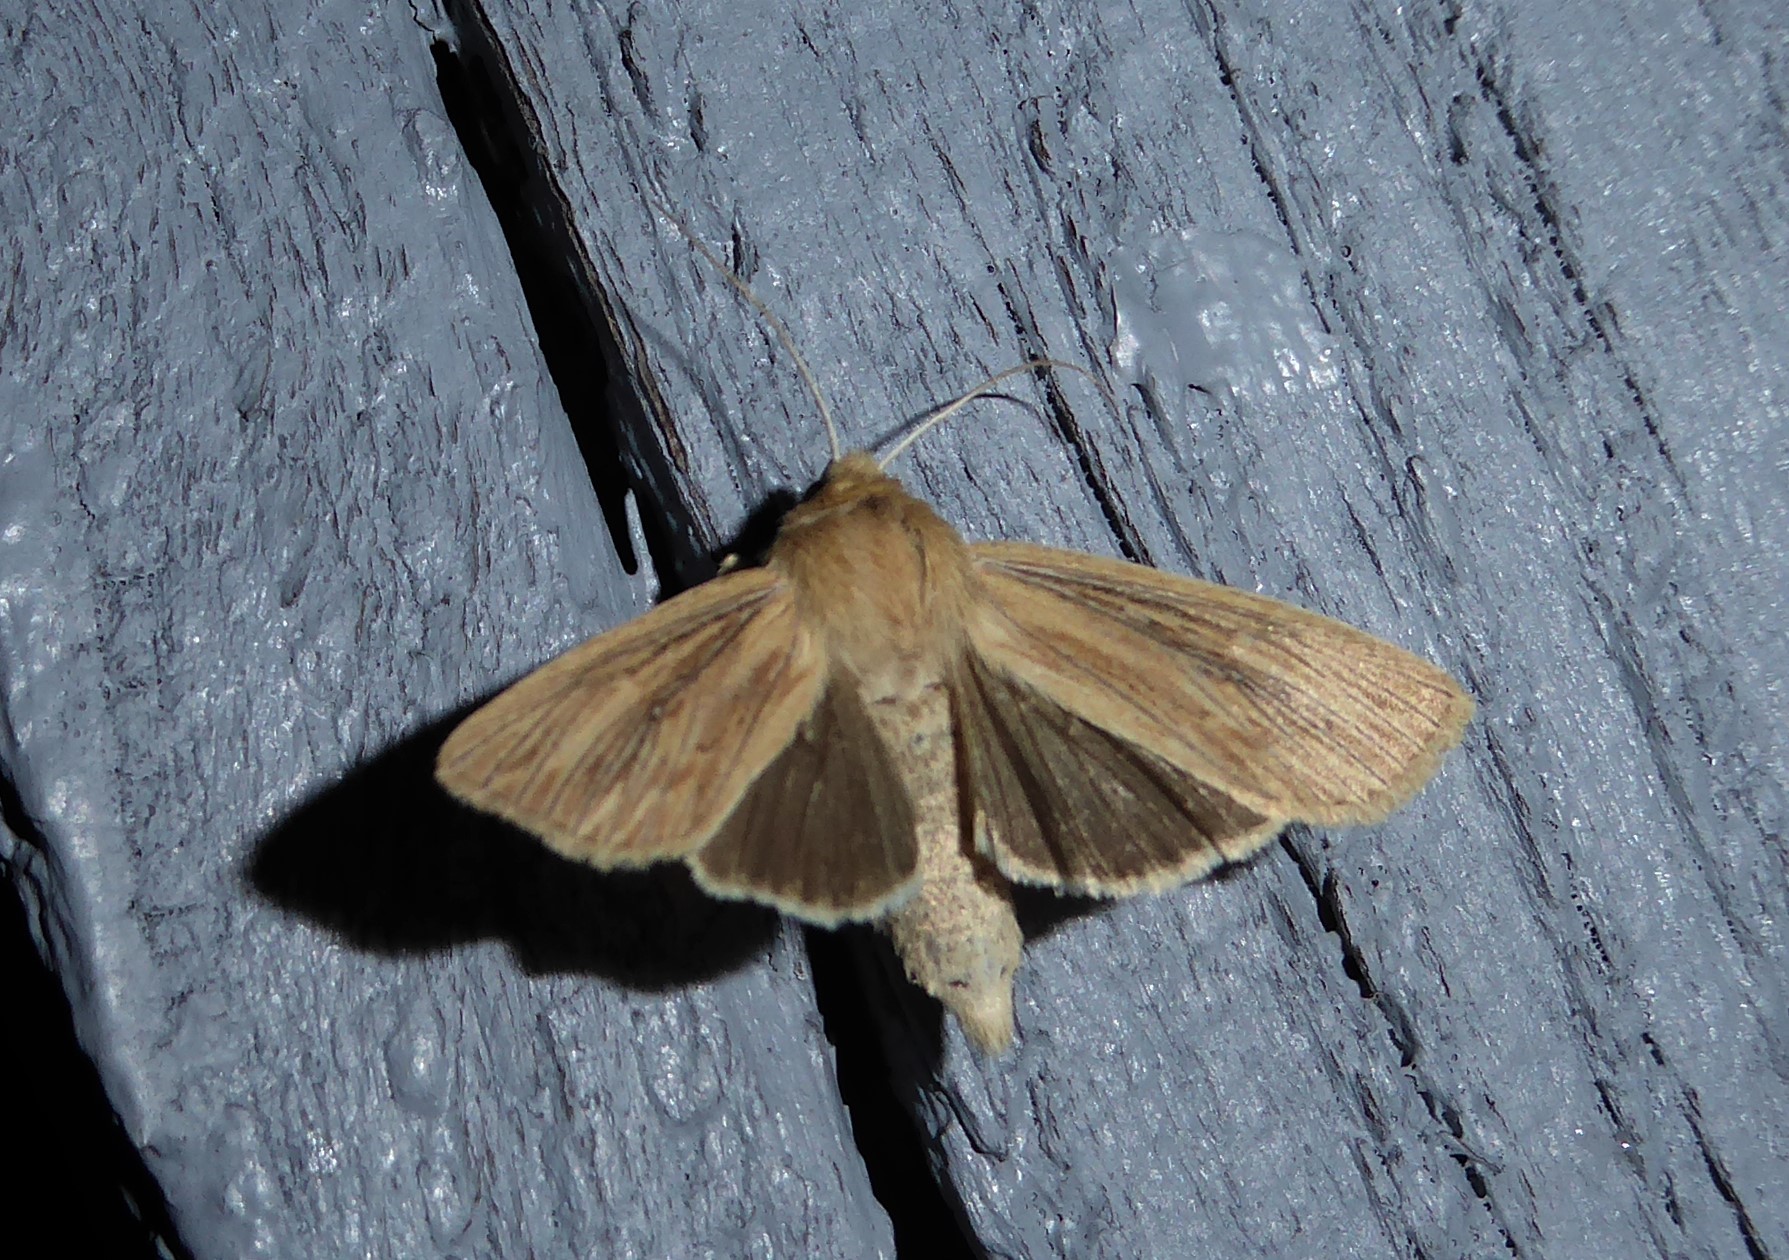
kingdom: Animalia
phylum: Arthropoda
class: Insecta
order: Lepidoptera
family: Noctuidae
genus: Ichneutica
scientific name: Ichneutica arotis
